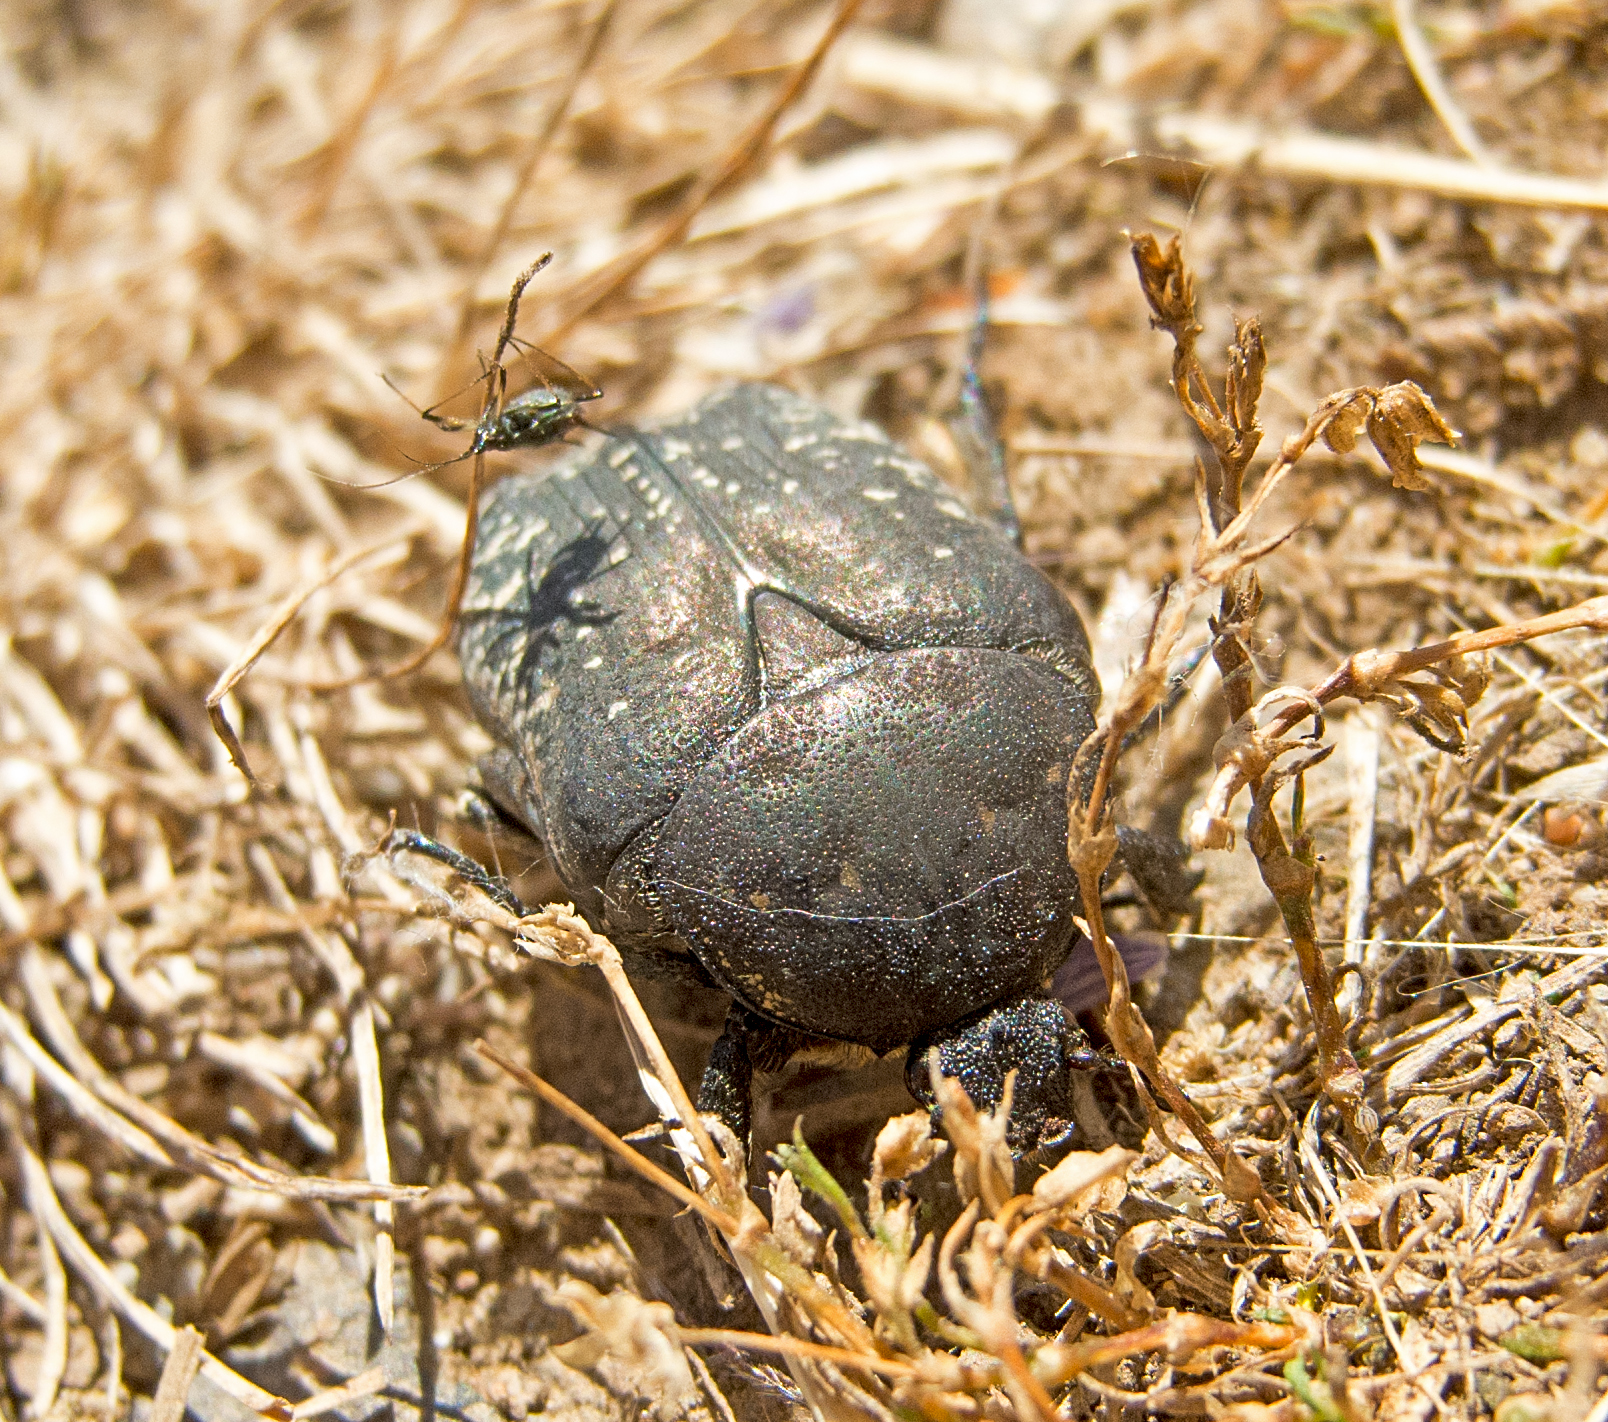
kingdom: Animalia
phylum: Arthropoda
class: Insecta
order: Coleoptera
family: Scarabaeidae
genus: Protaetia
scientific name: Protaetia vidua
